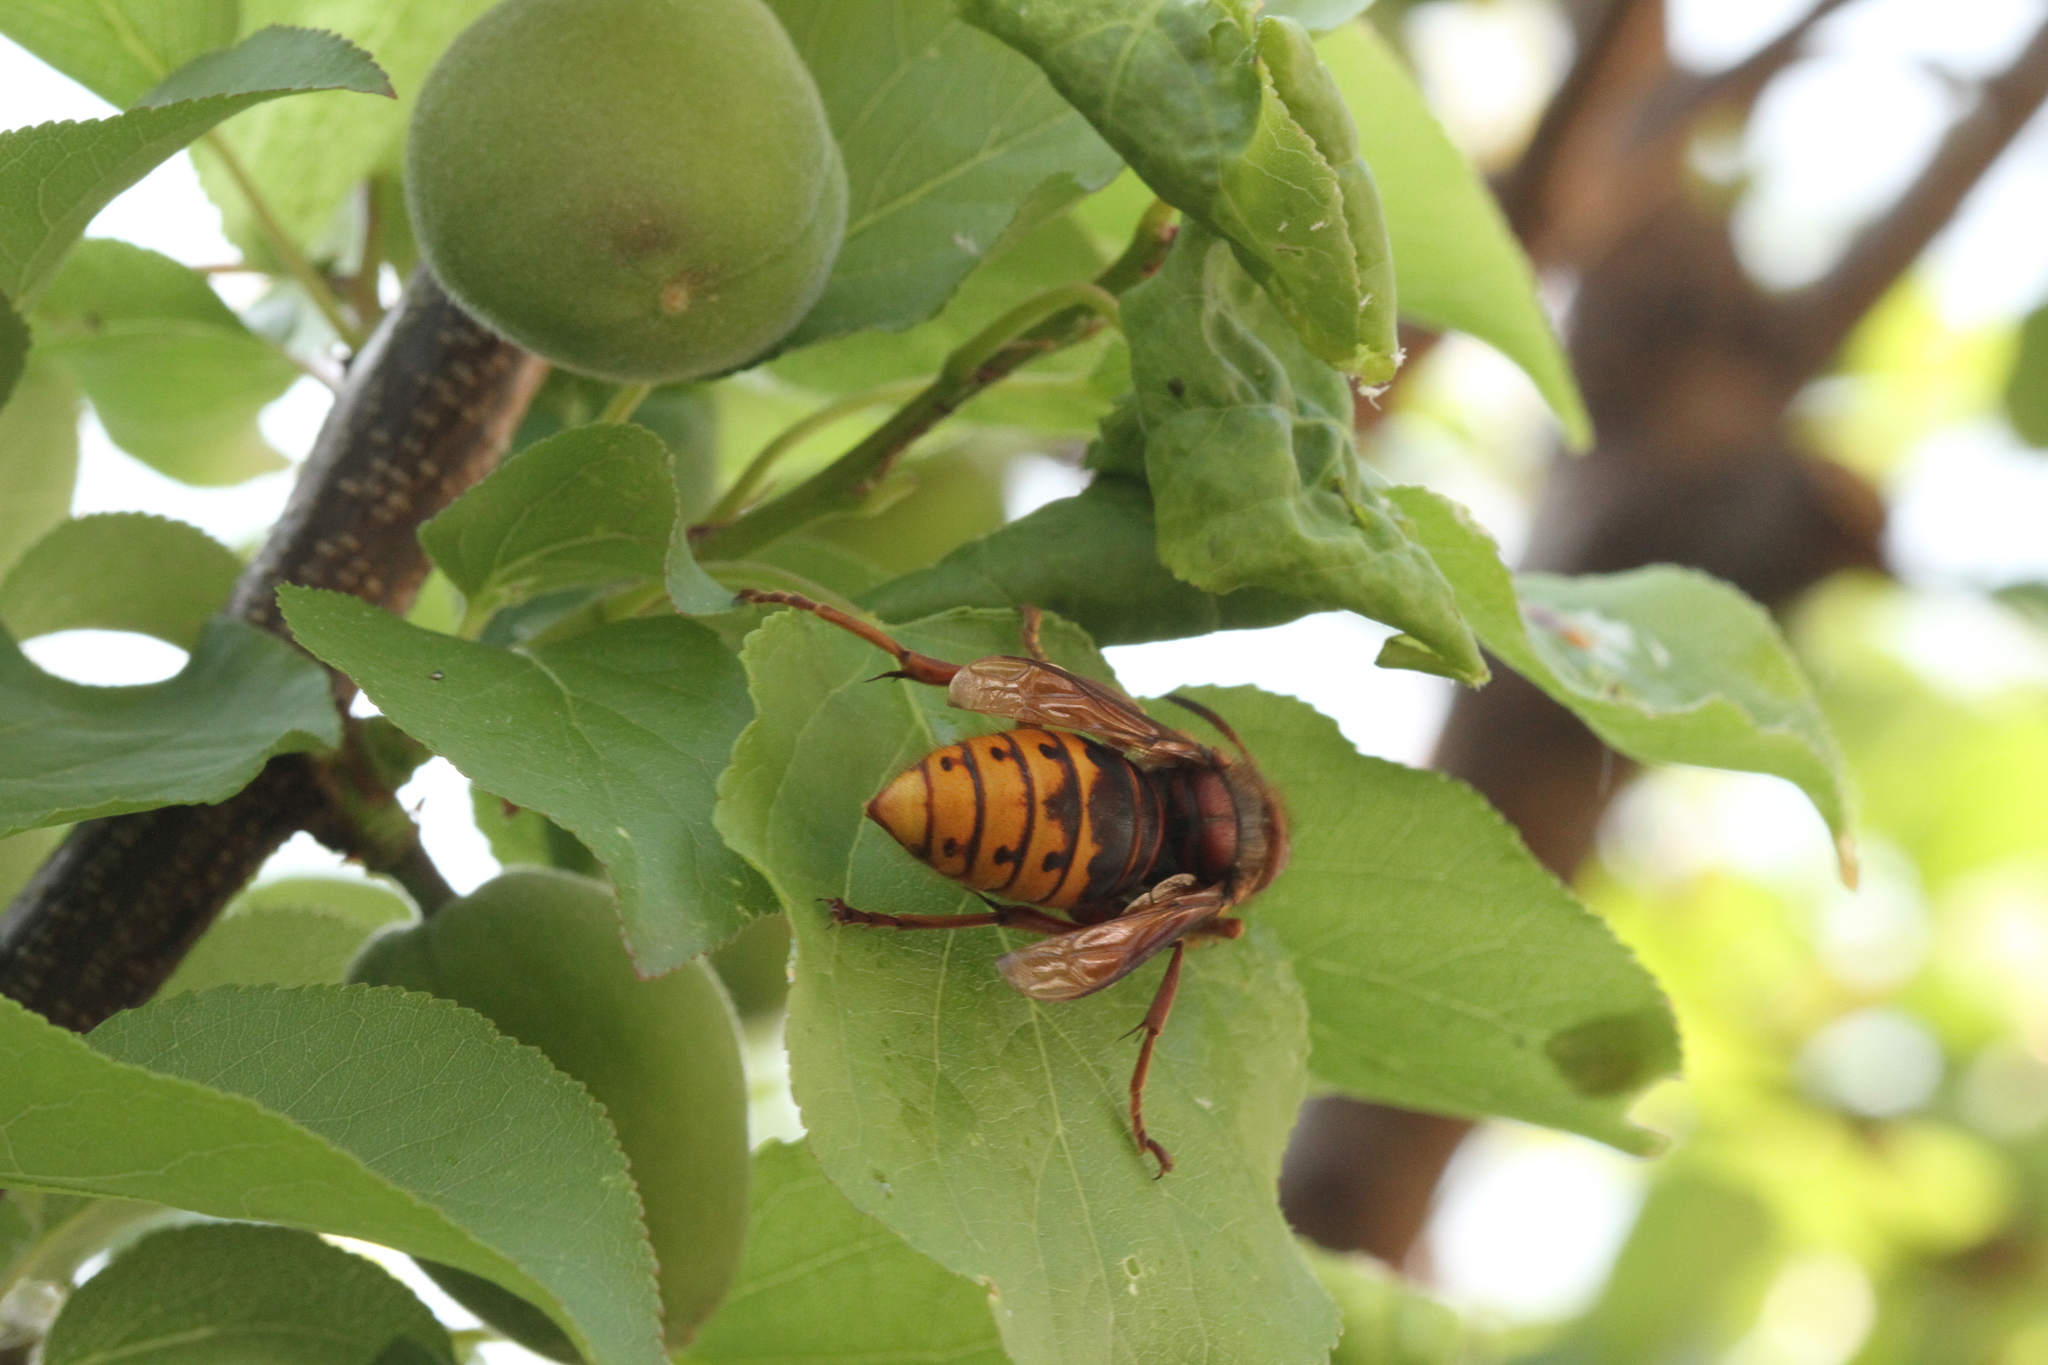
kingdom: Animalia
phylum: Arthropoda
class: Insecta
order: Hymenoptera
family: Vespidae
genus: Vespa
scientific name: Vespa crabro
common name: Hornet
